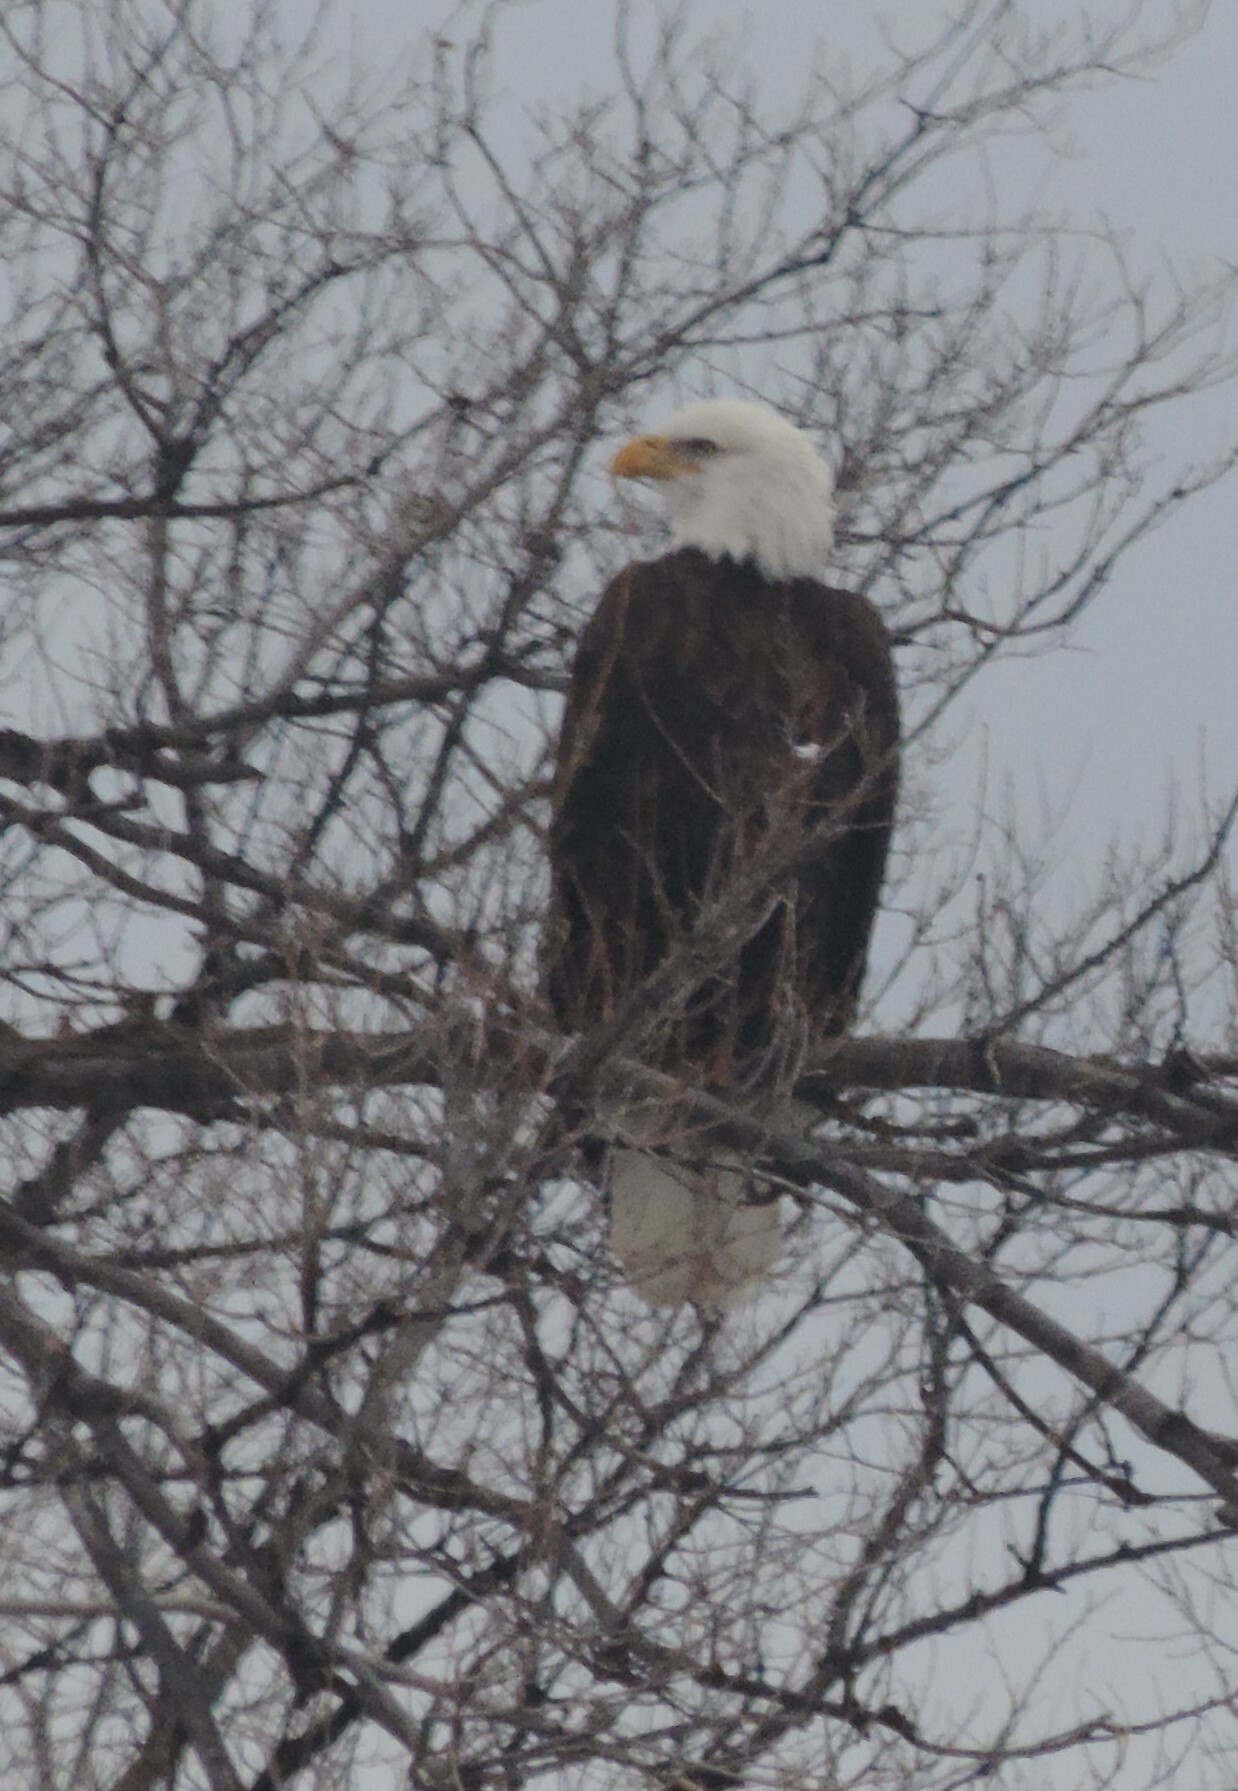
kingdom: Animalia
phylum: Chordata
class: Aves
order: Accipitriformes
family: Accipitridae
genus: Haliaeetus
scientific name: Haliaeetus leucocephalus
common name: Bald eagle
